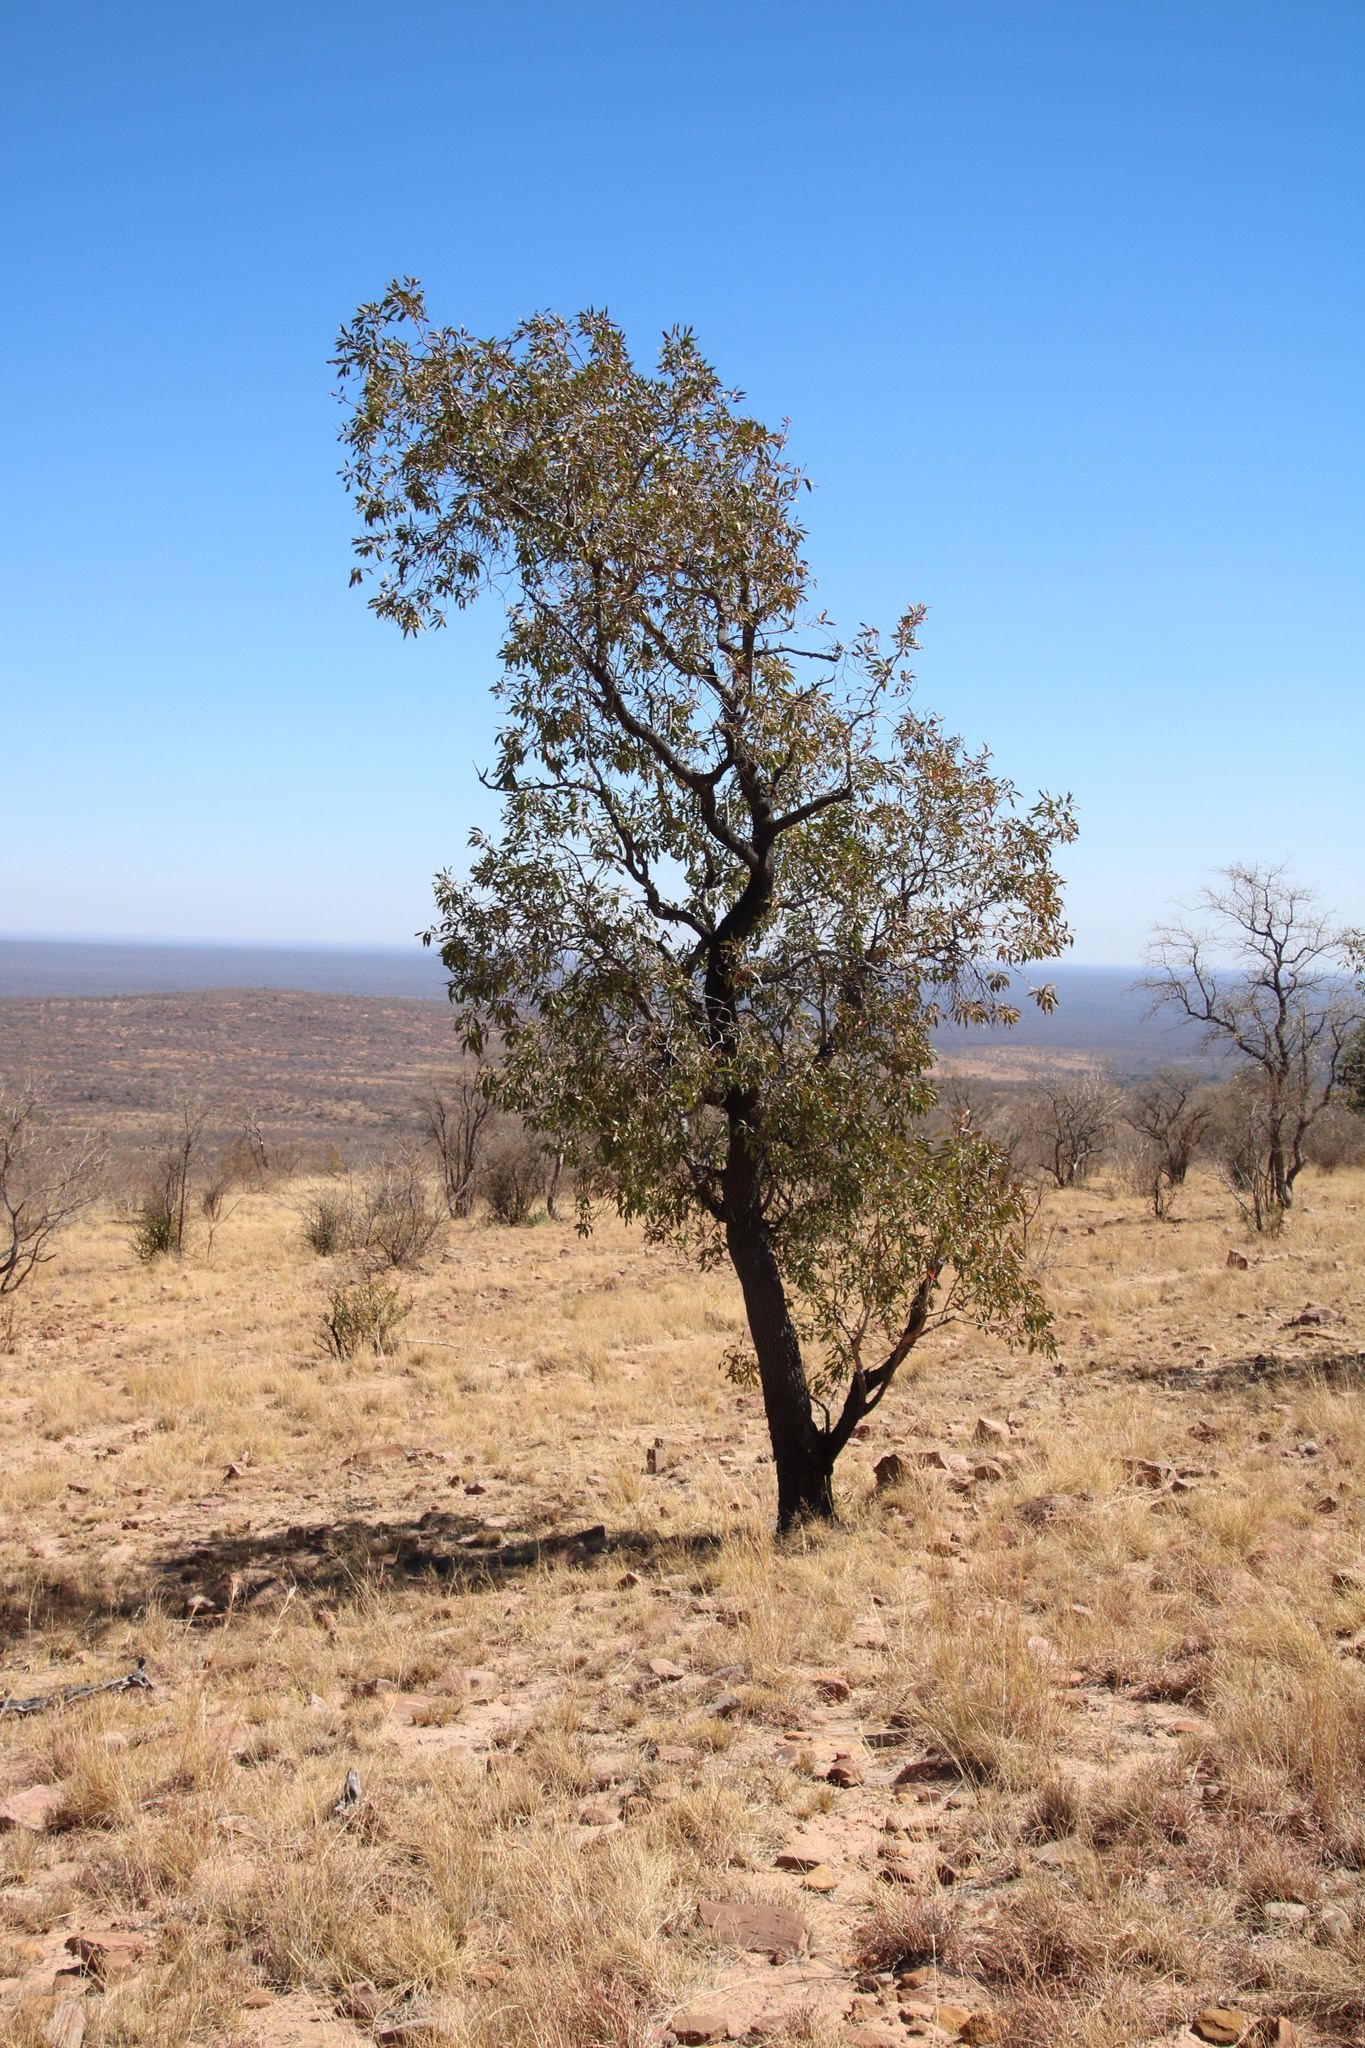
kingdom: Plantae
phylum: Tracheophyta
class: Magnoliopsida
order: Proteales
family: Proteaceae
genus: Faurea
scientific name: Faurea saligna
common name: African bean
